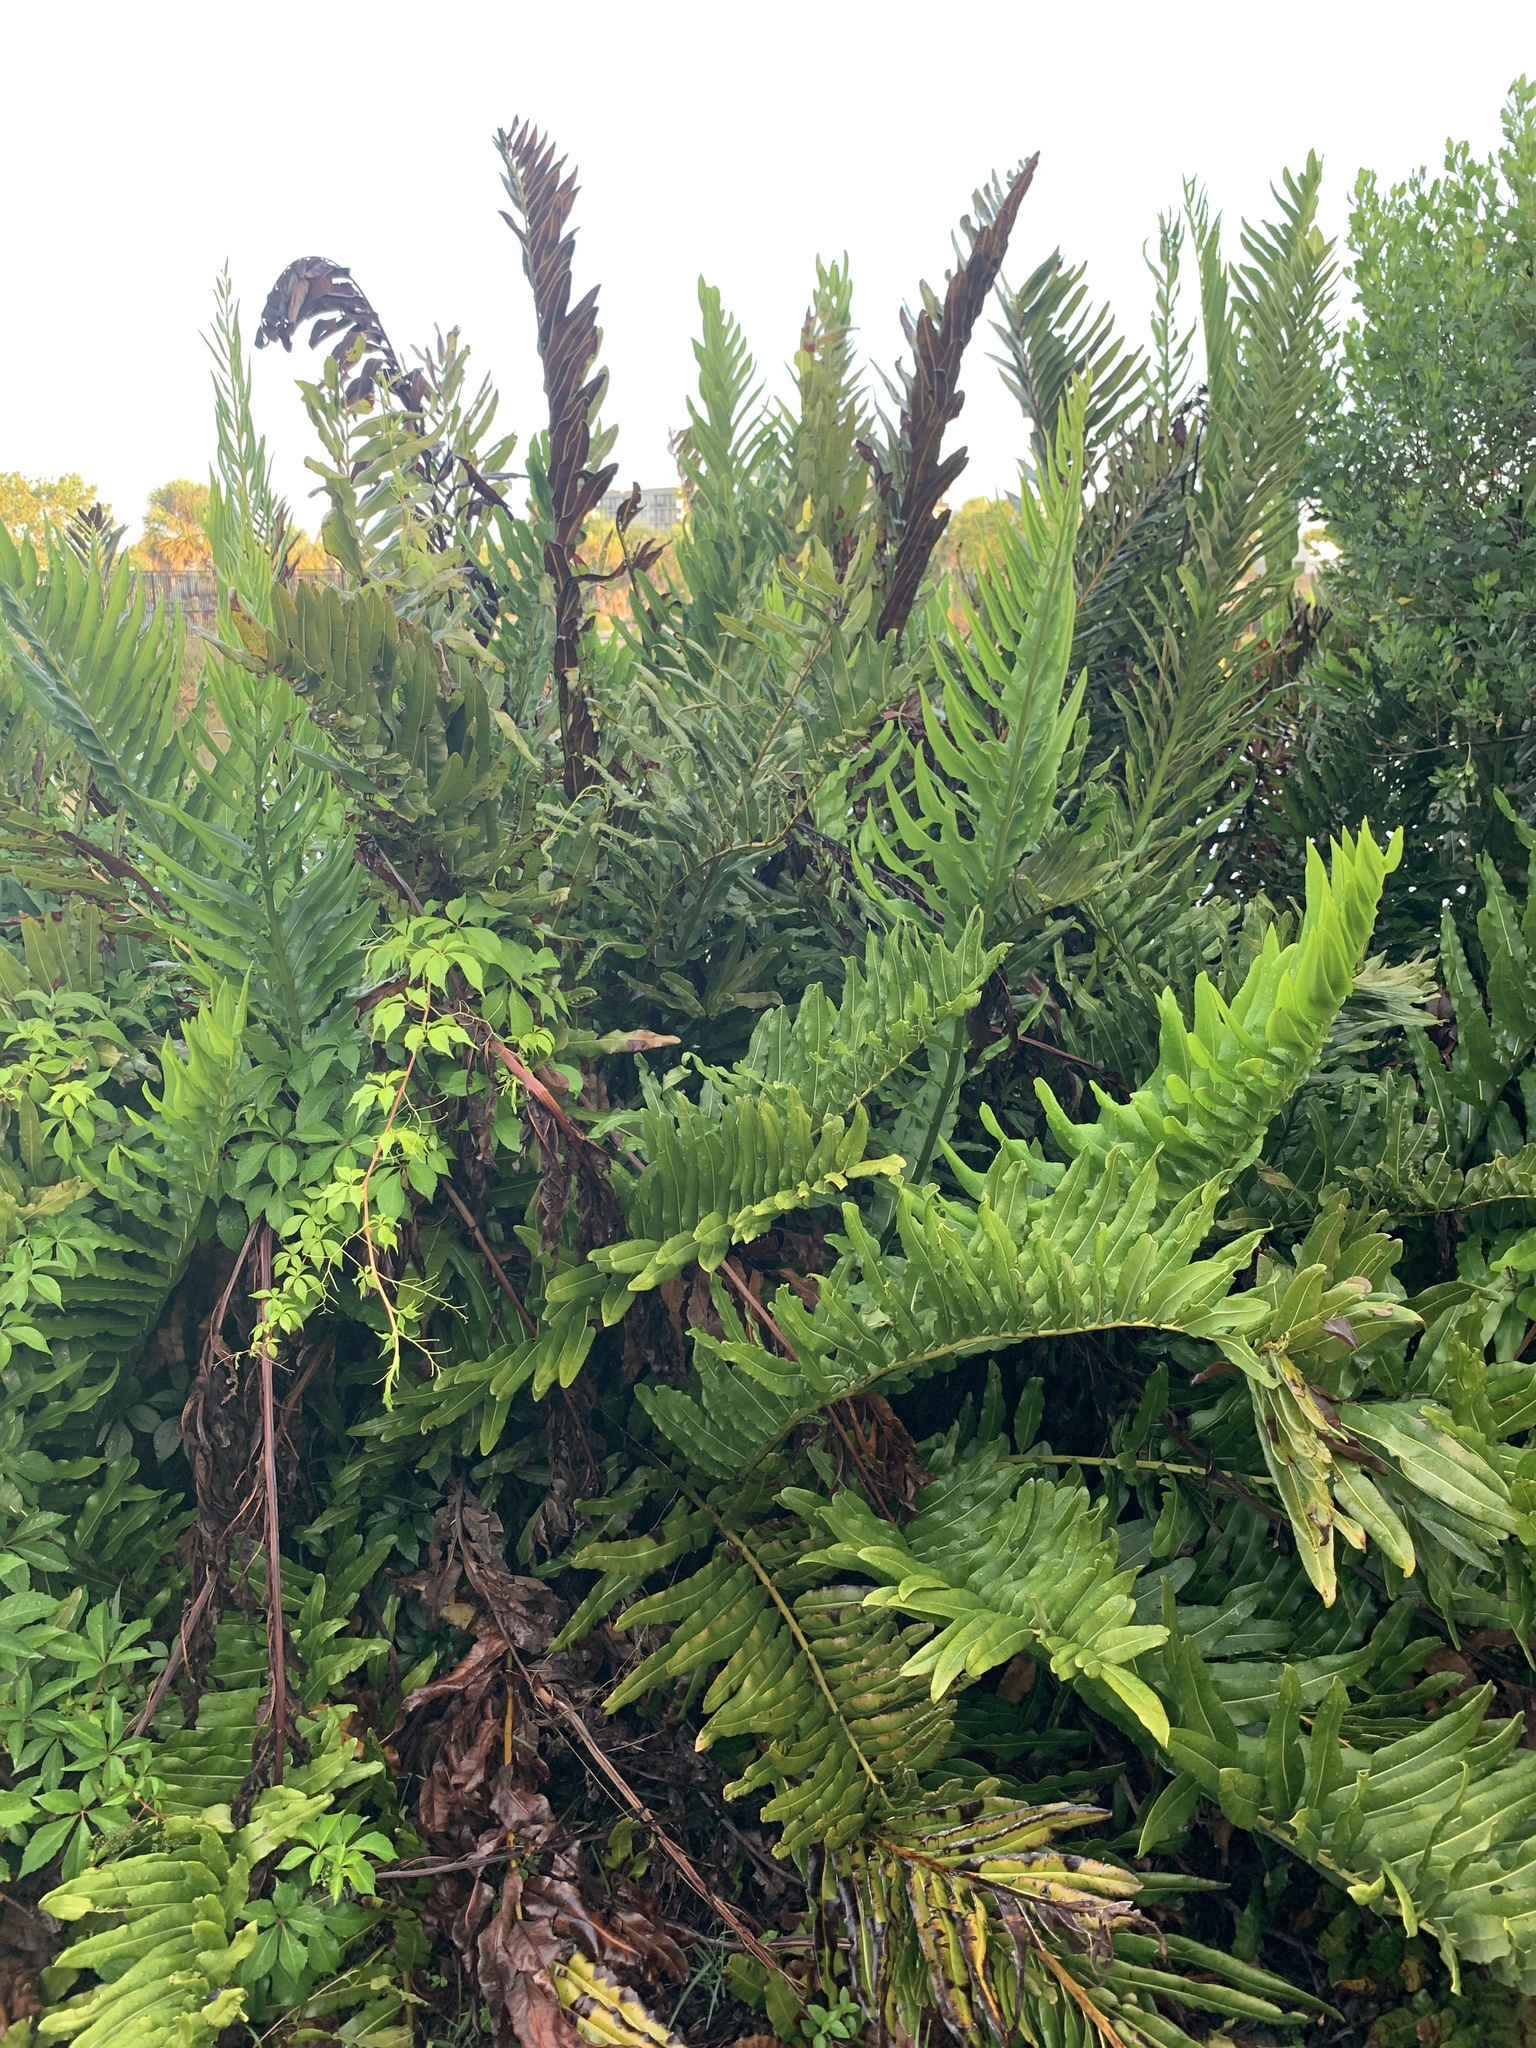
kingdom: Plantae
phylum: Tracheophyta
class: Polypodiopsida
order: Polypodiales
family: Pteridaceae
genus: Acrostichum
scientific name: Acrostichum danaeifolium
